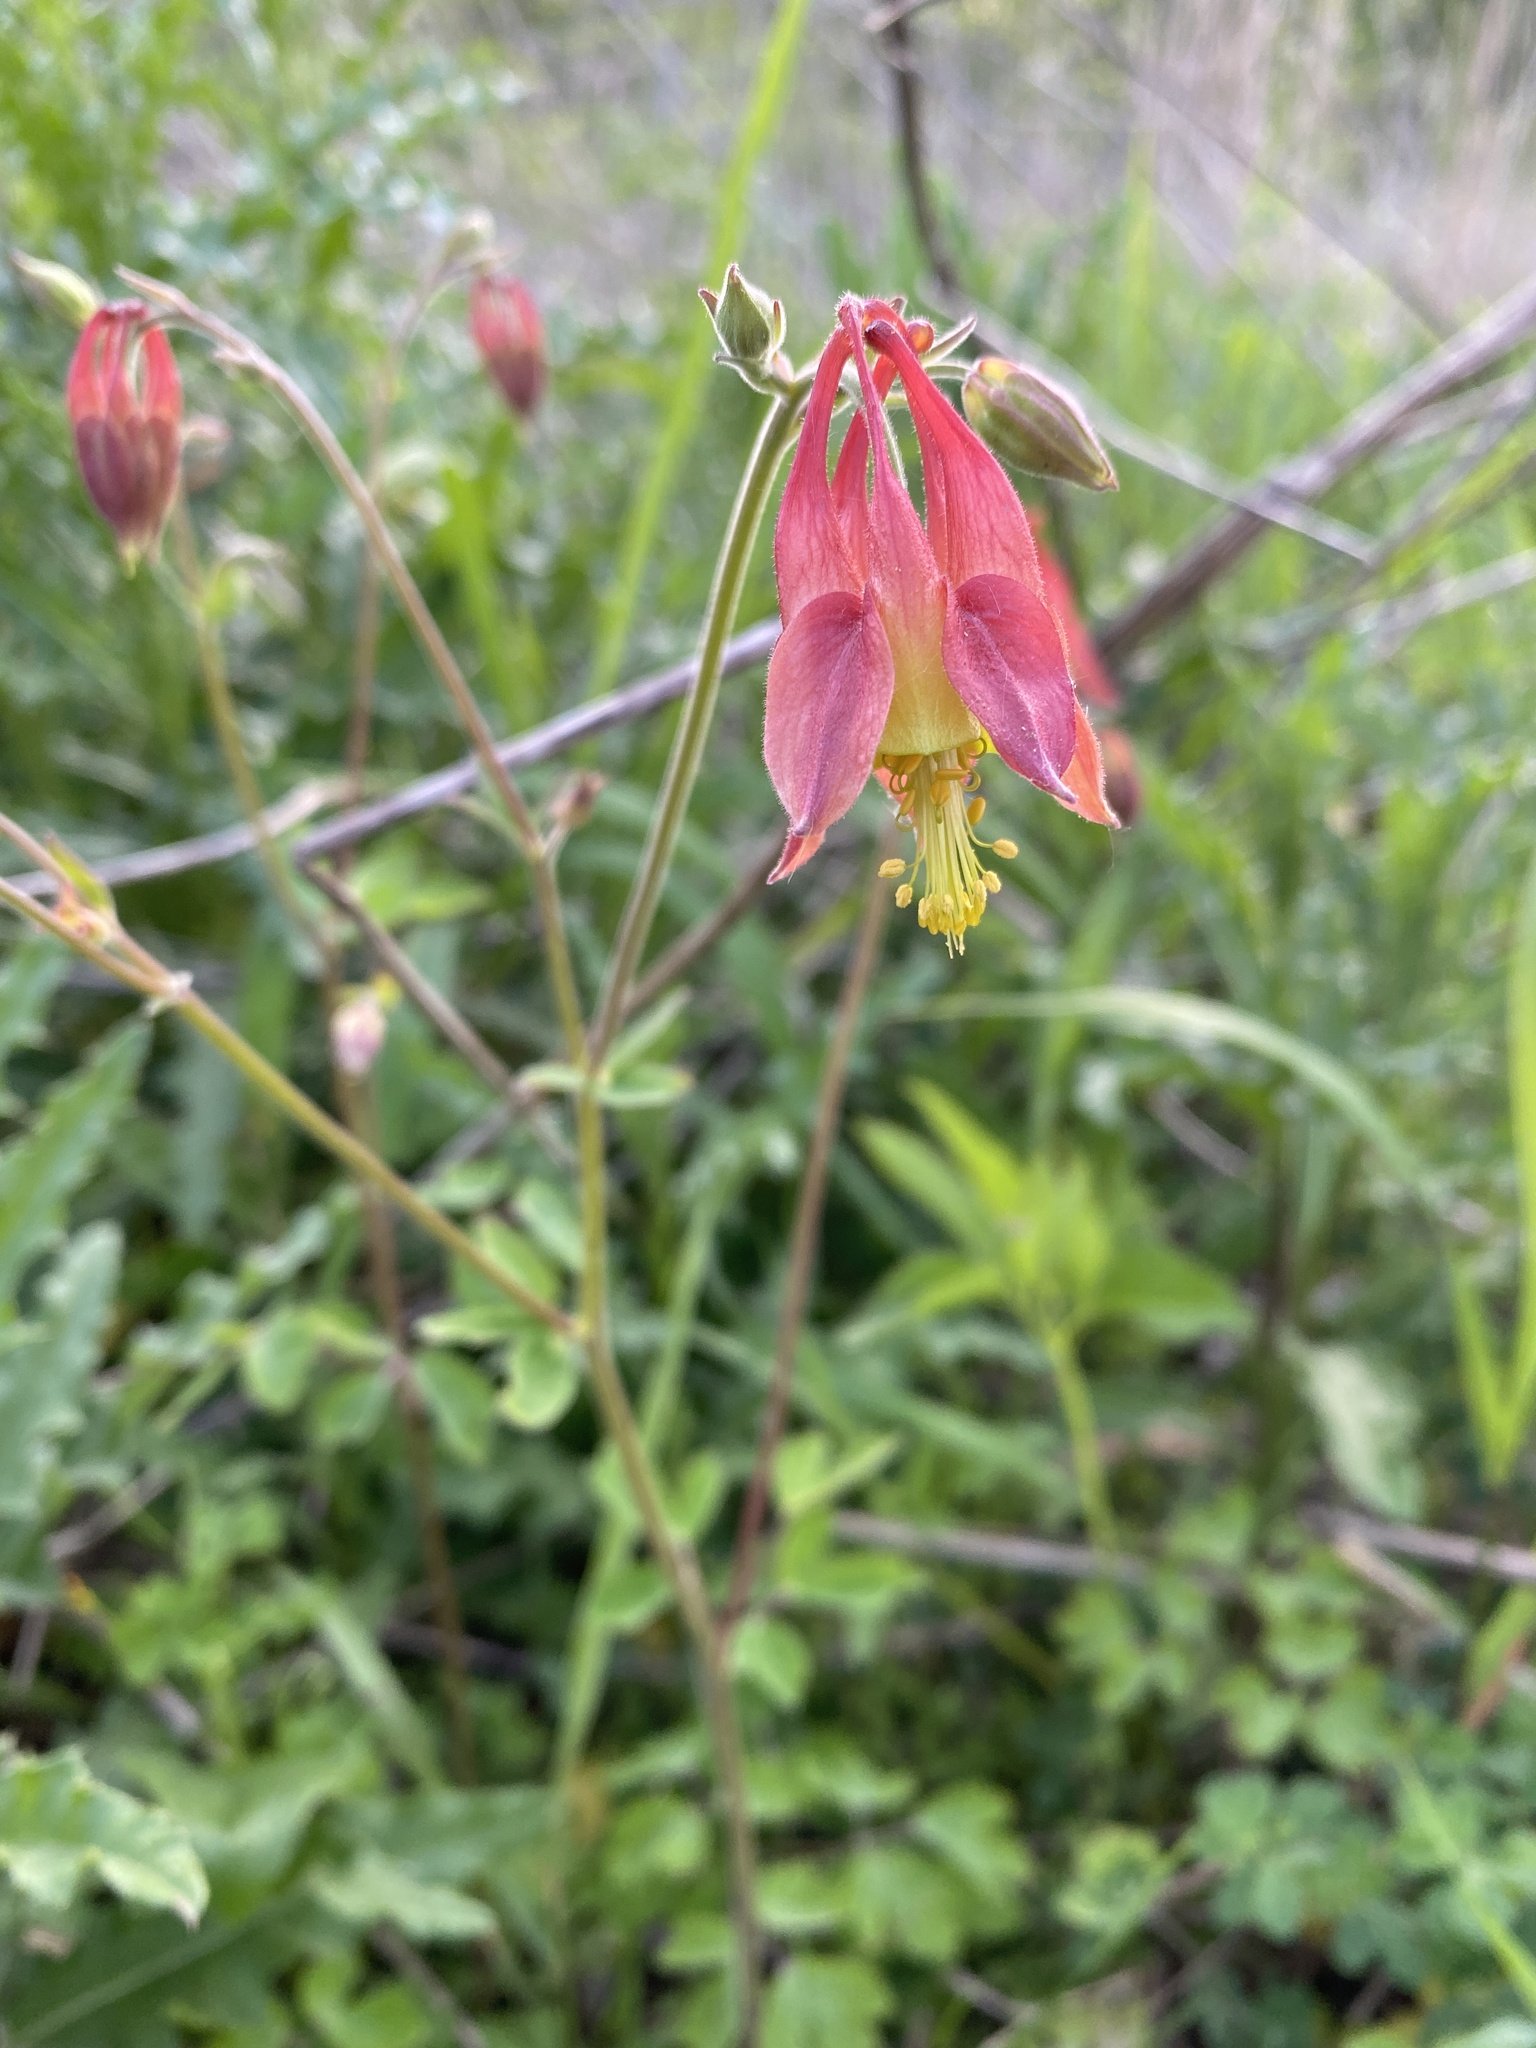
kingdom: Plantae
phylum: Tracheophyta
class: Magnoliopsida
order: Ranunculales
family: Ranunculaceae
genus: Aquilegia
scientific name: Aquilegia canadensis
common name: American columbine
